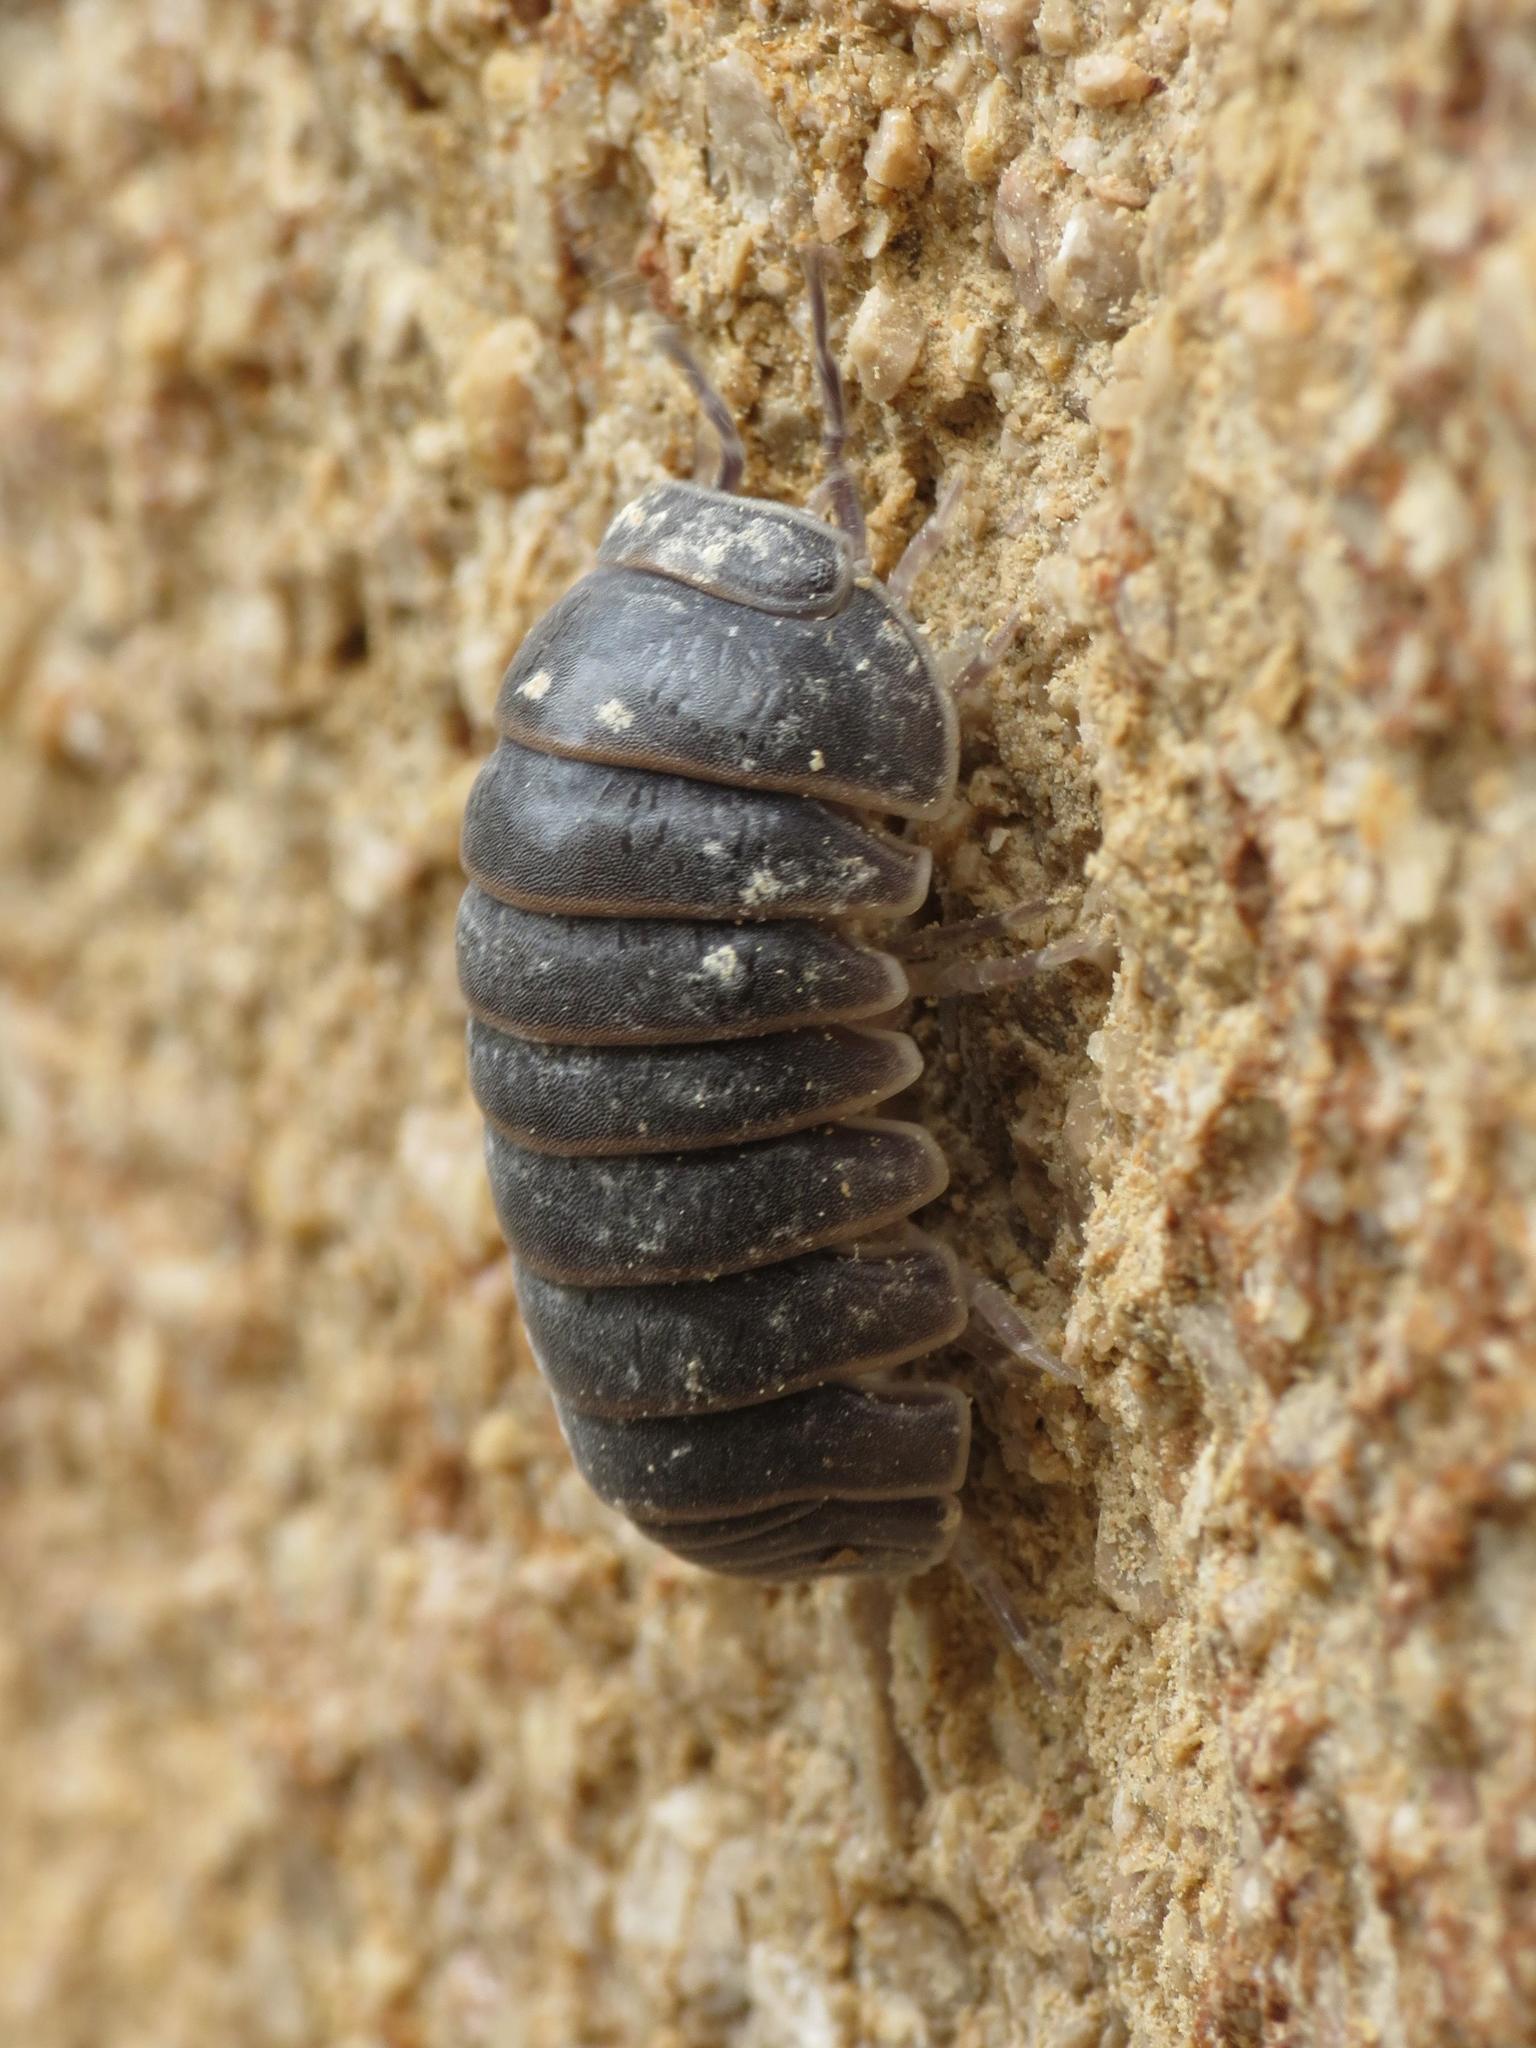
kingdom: Animalia
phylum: Arthropoda
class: Malacostraca
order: Isopoda
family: Armadillidae
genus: Armadillo
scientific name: Armadillo officinalis
